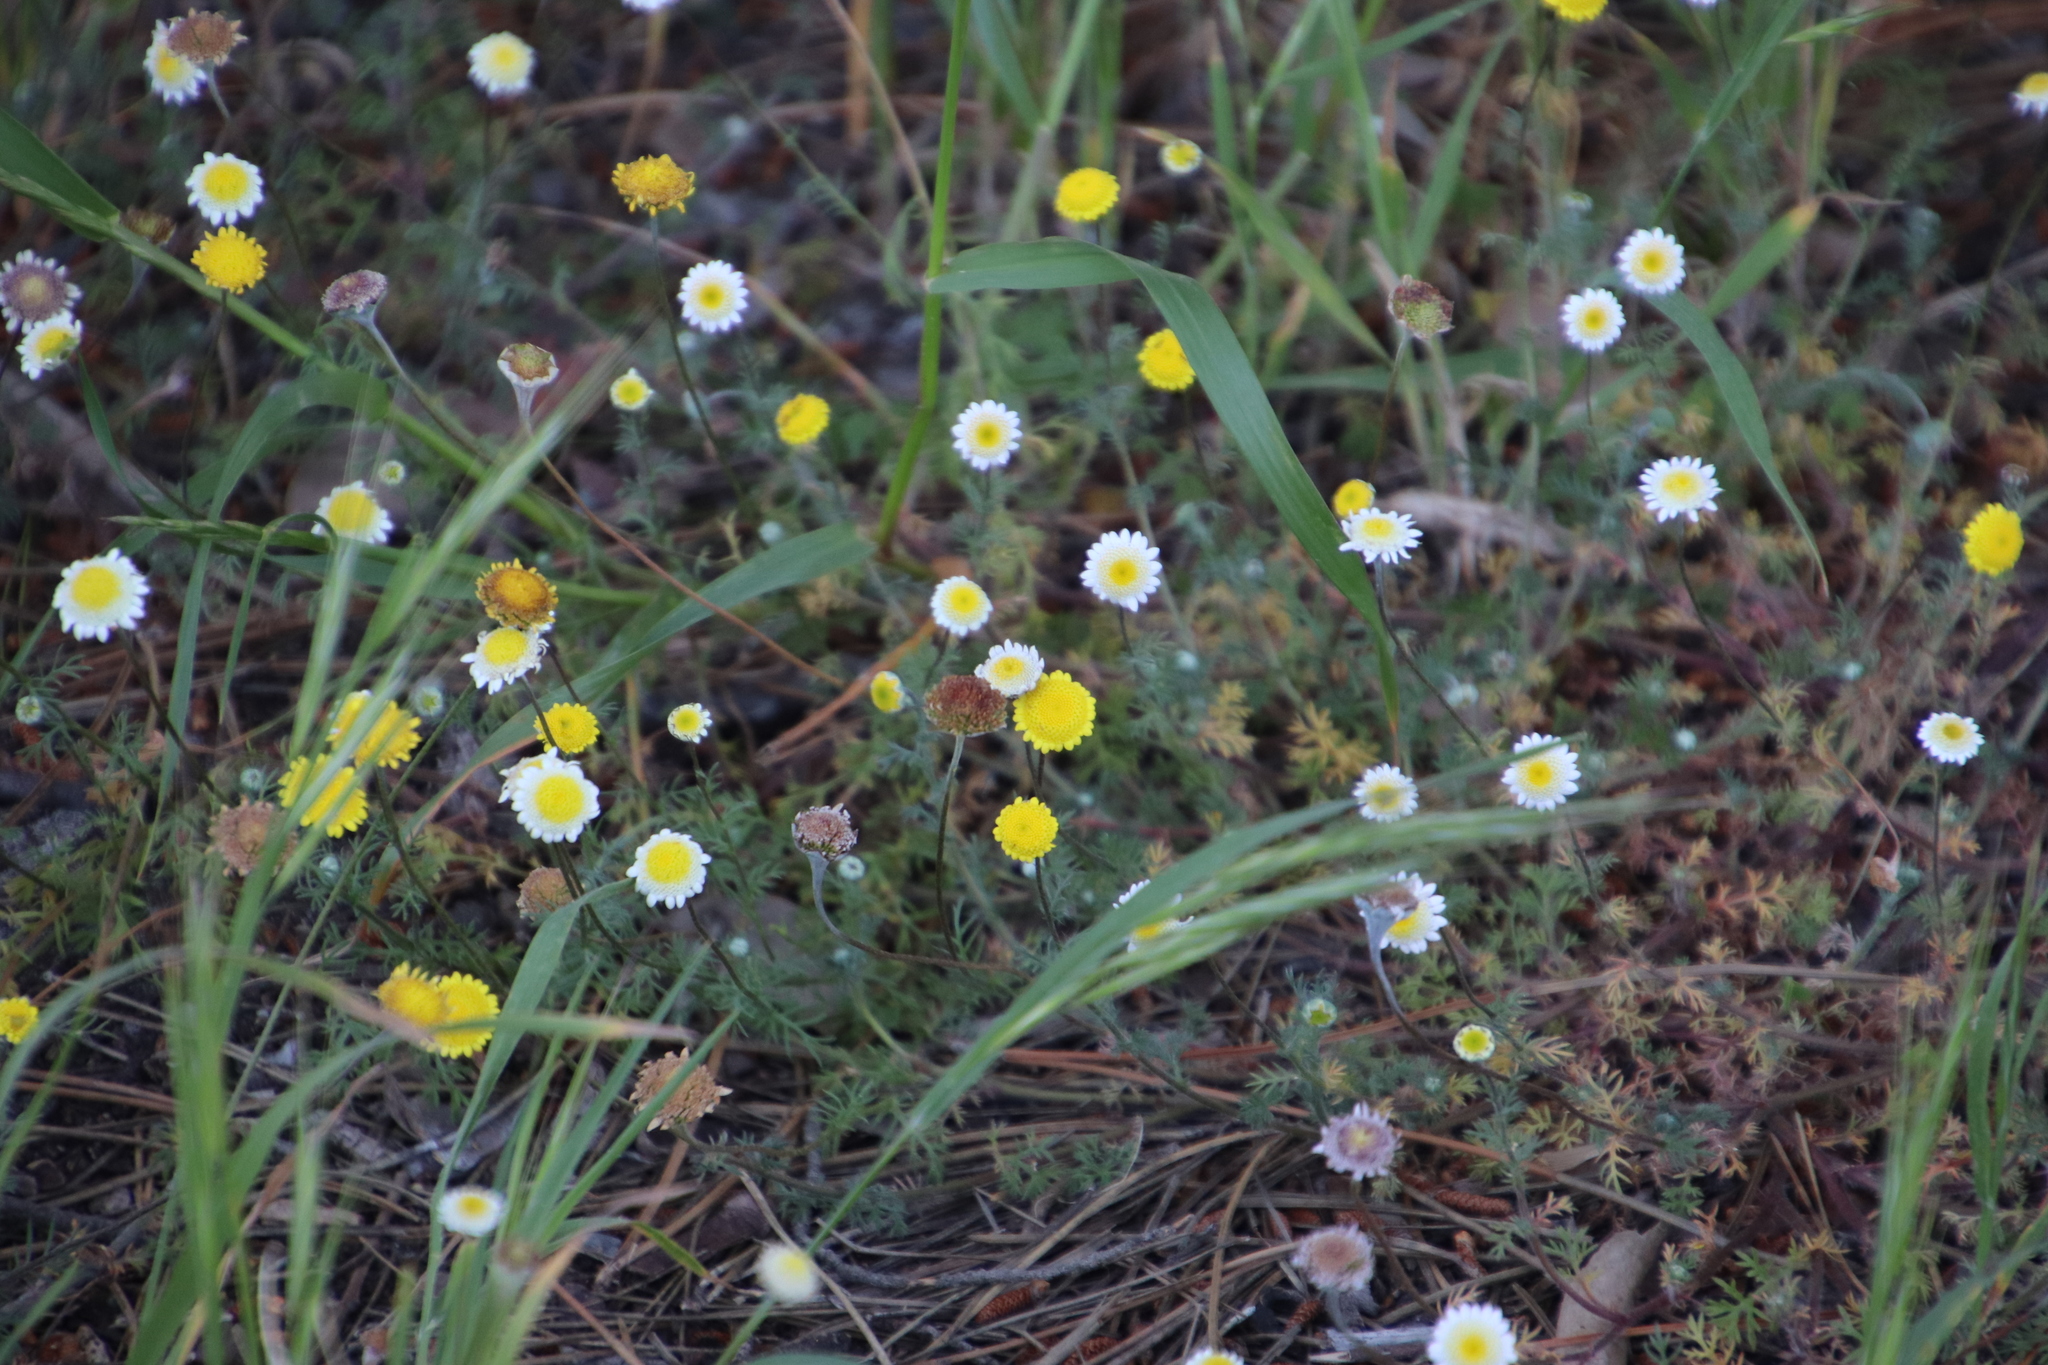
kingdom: Plantae
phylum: Tracheophyta
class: Magnoliopsida
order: Asterales
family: Asteraceae
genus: Cotula
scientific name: Cotula pruinosa
